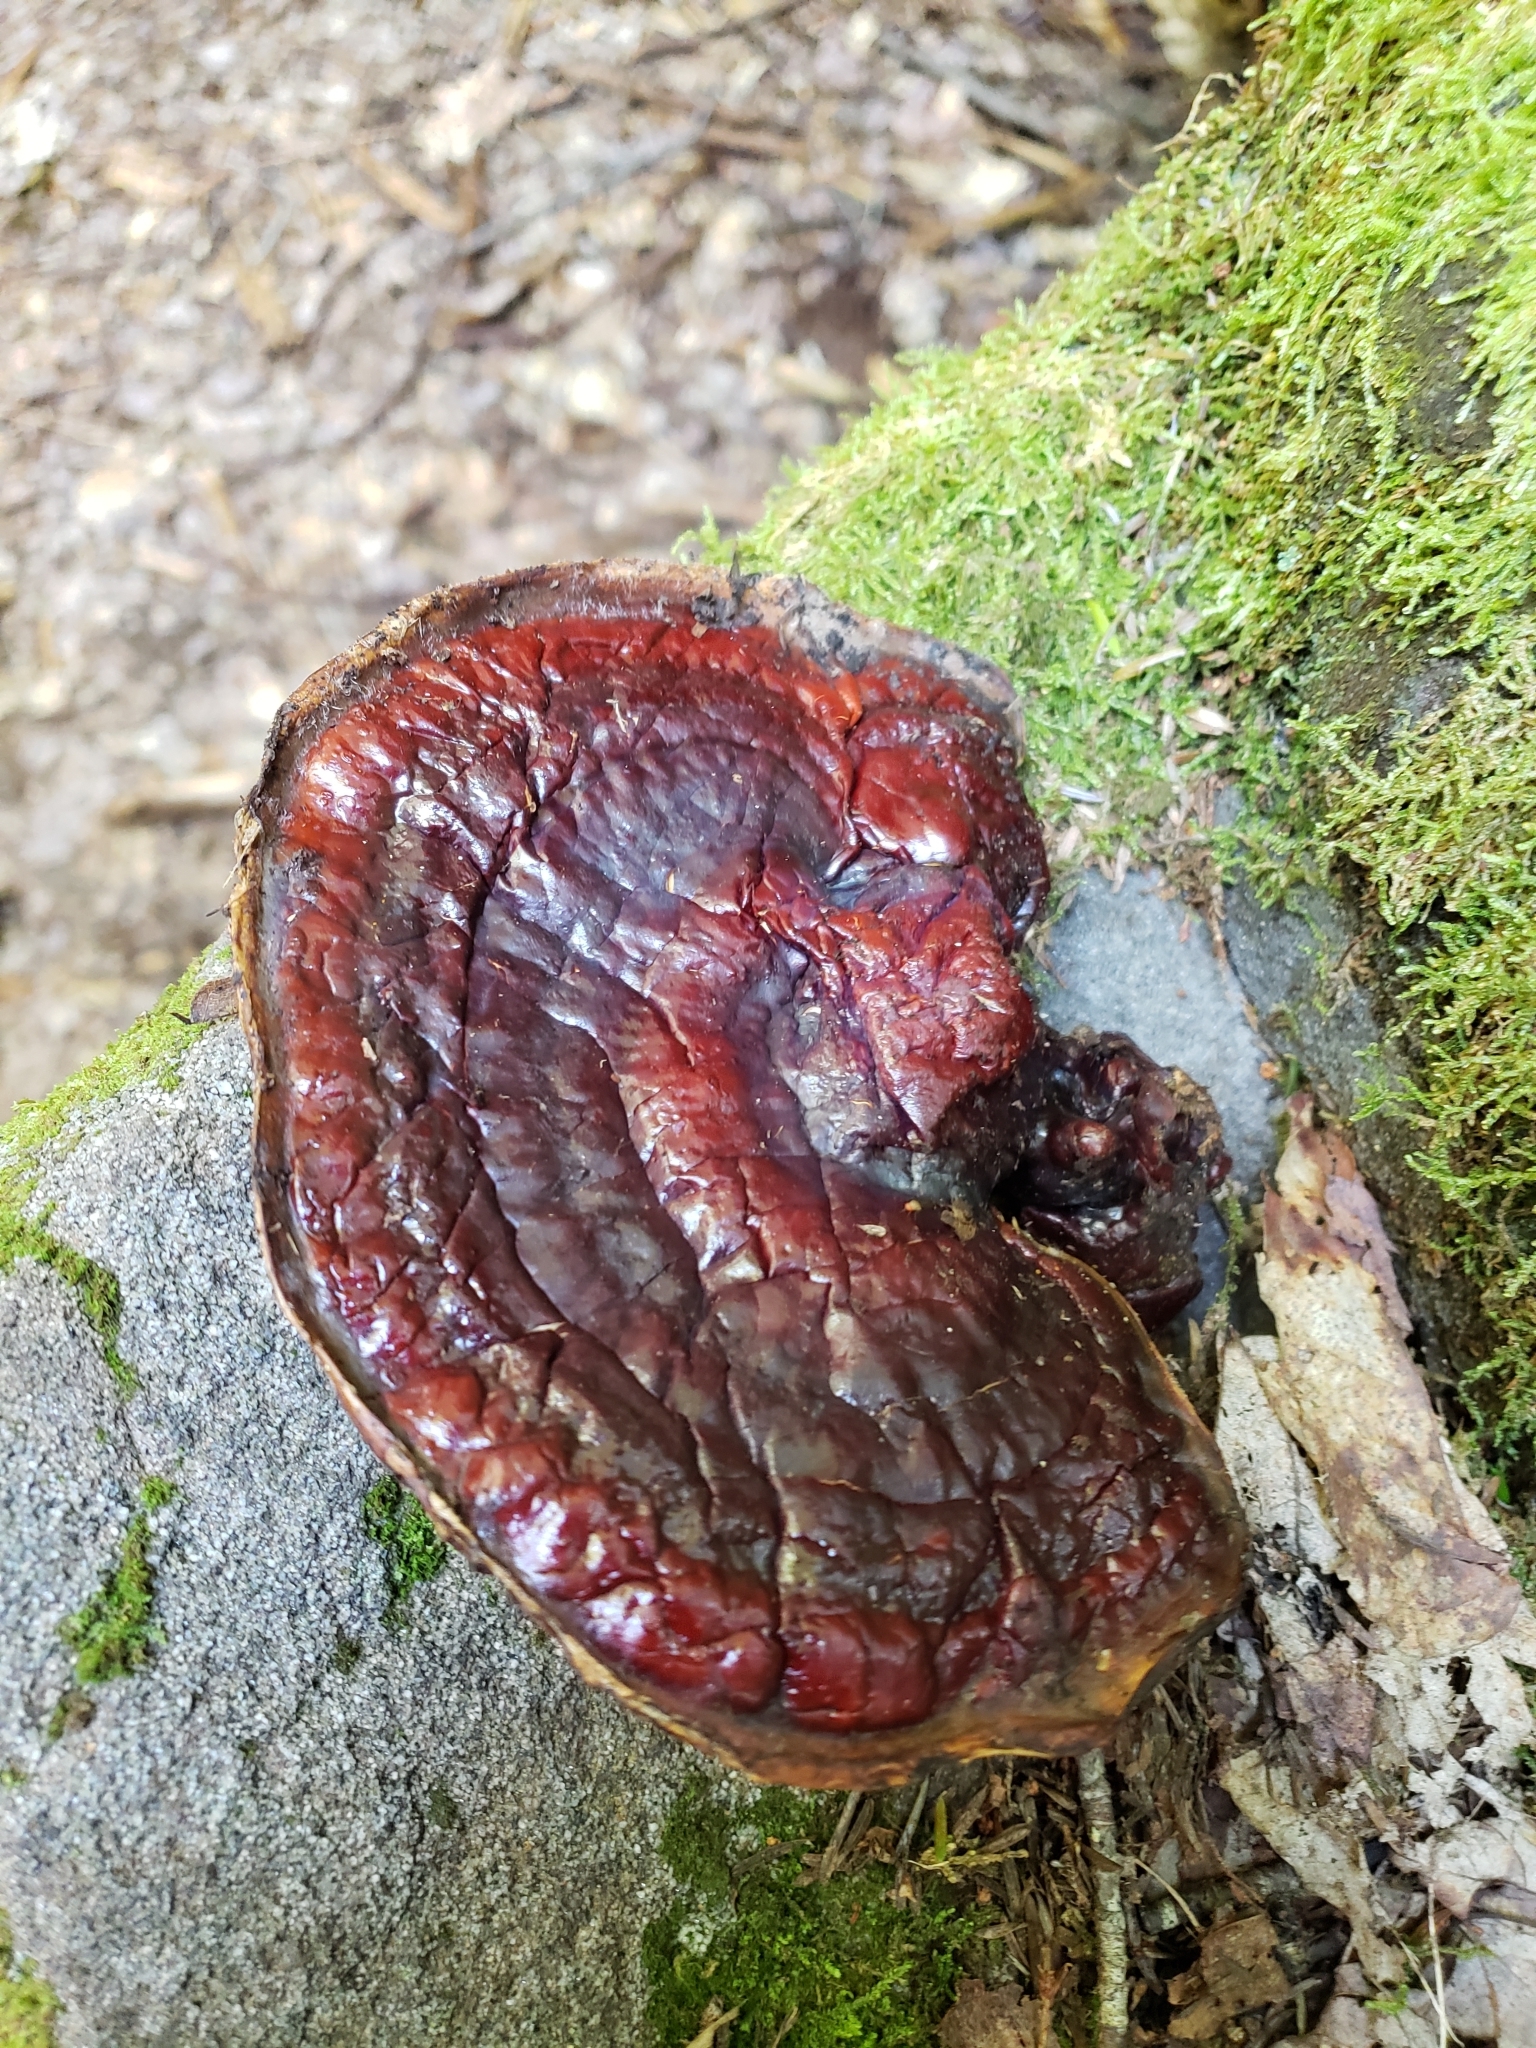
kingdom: Fungi
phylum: Basidiomycota
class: Agaricomycetes
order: Polyporales
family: Polyporaceae
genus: Ganoderma
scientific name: Ganoderma tsugae
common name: Hemlock varnish shelf
